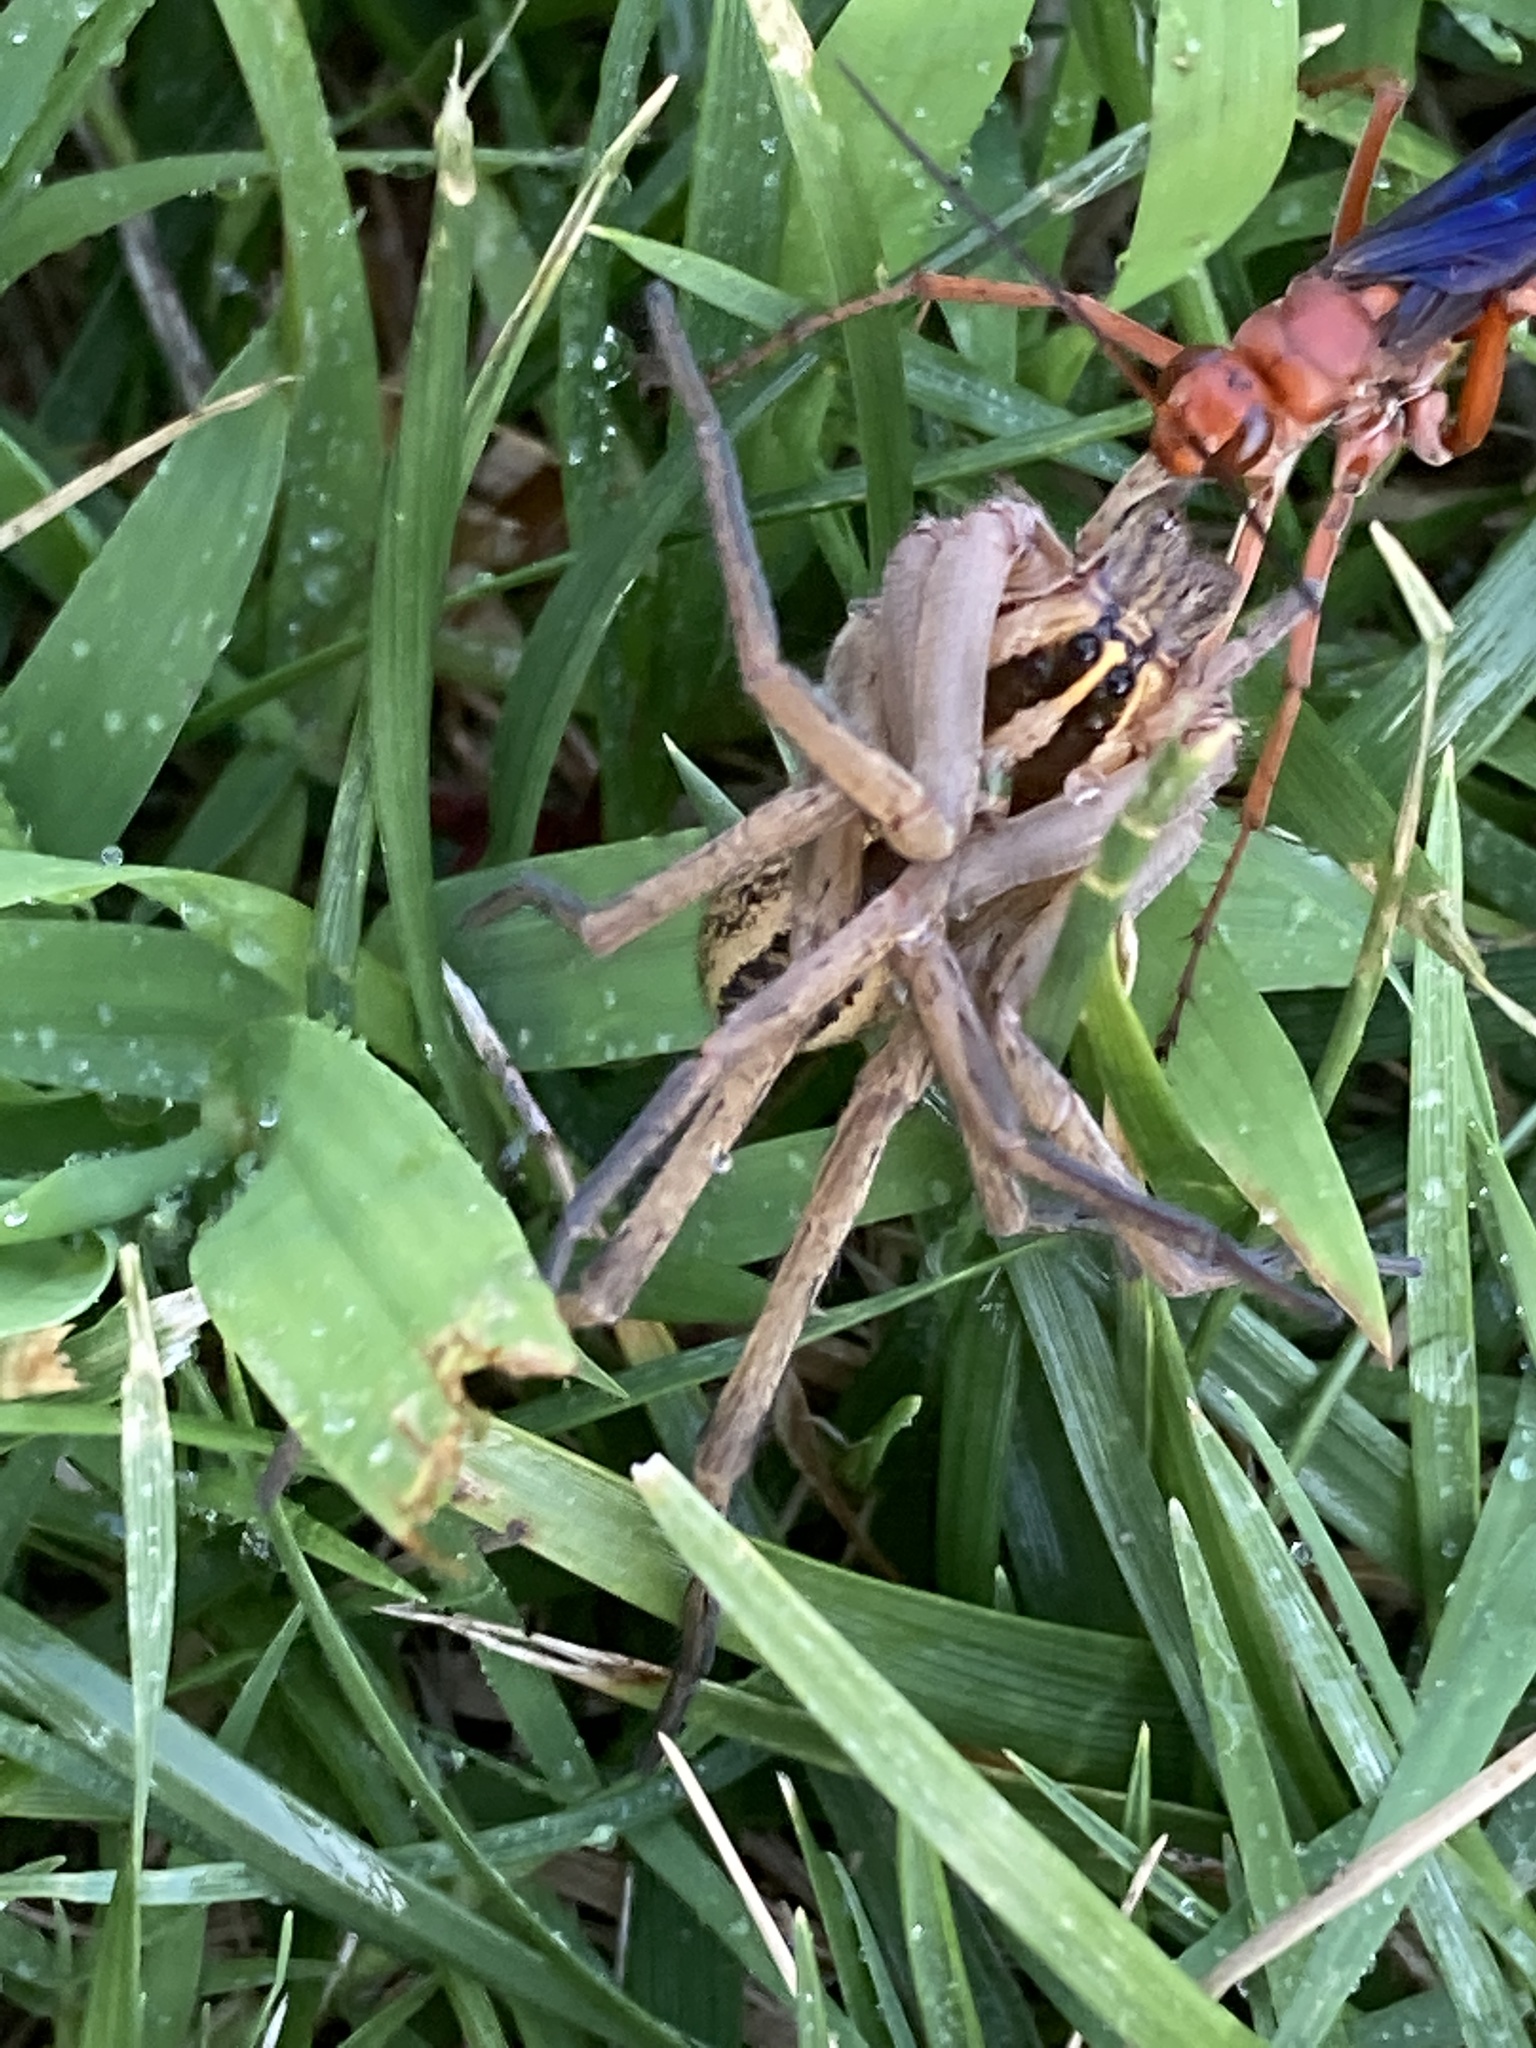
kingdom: Animalia
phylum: Arthropoda
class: Arachnida
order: Araneae
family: Lycosidae
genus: Rabidosa
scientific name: Rabidosa rabida
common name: Rabid wolf spider
